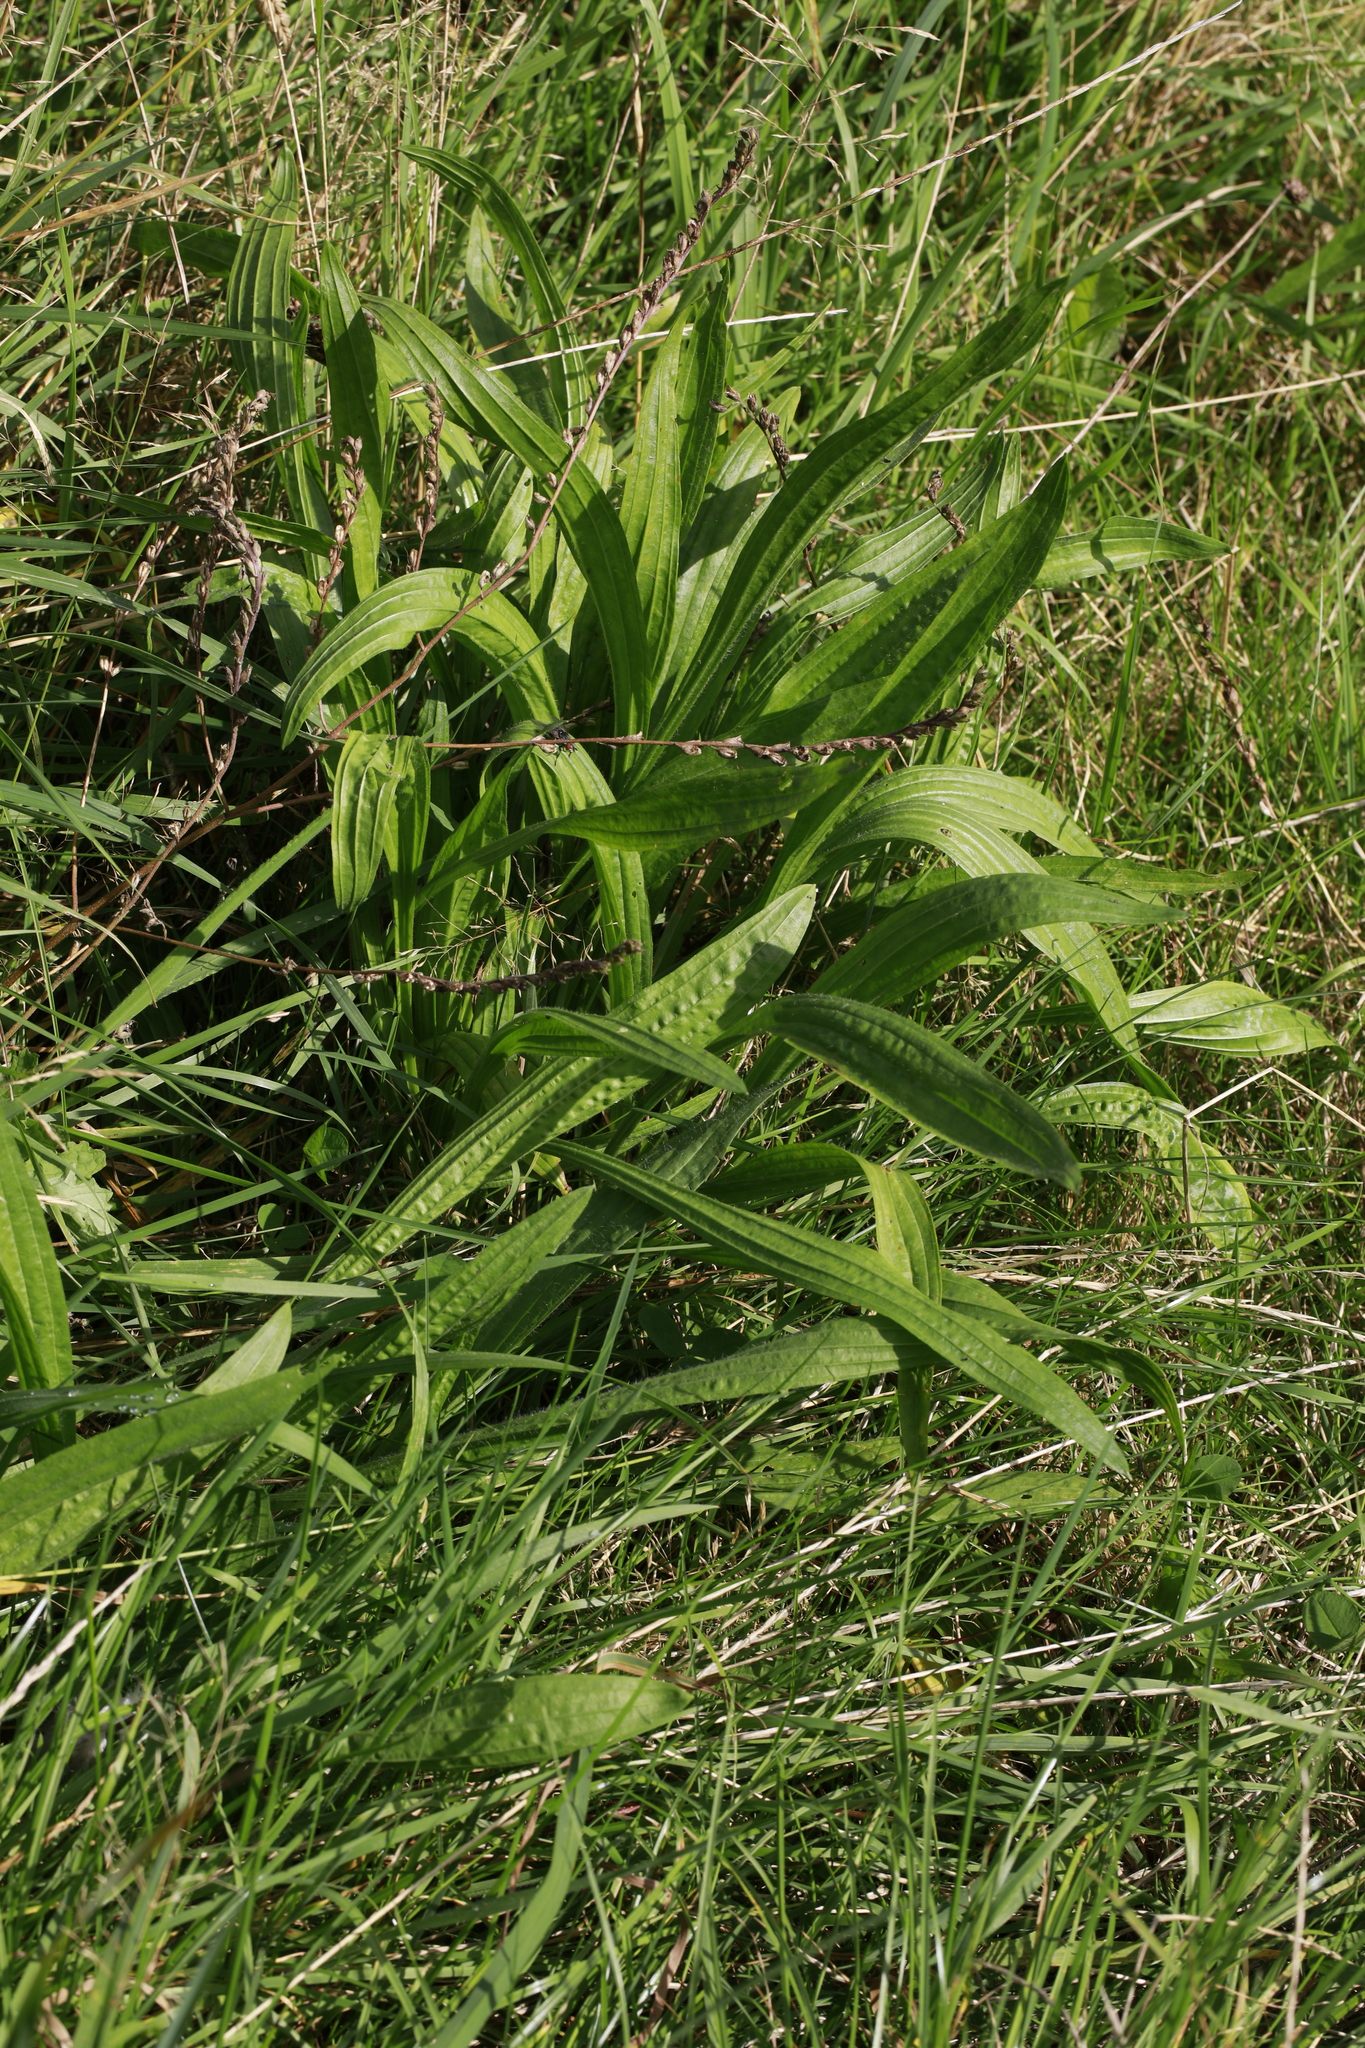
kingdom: Plantae
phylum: Tracheophyta
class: Magnoliopsida
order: Lamiales
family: Plantaginaceae
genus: Plantago
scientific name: Plantago lanceolata
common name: Ribwort plantain
